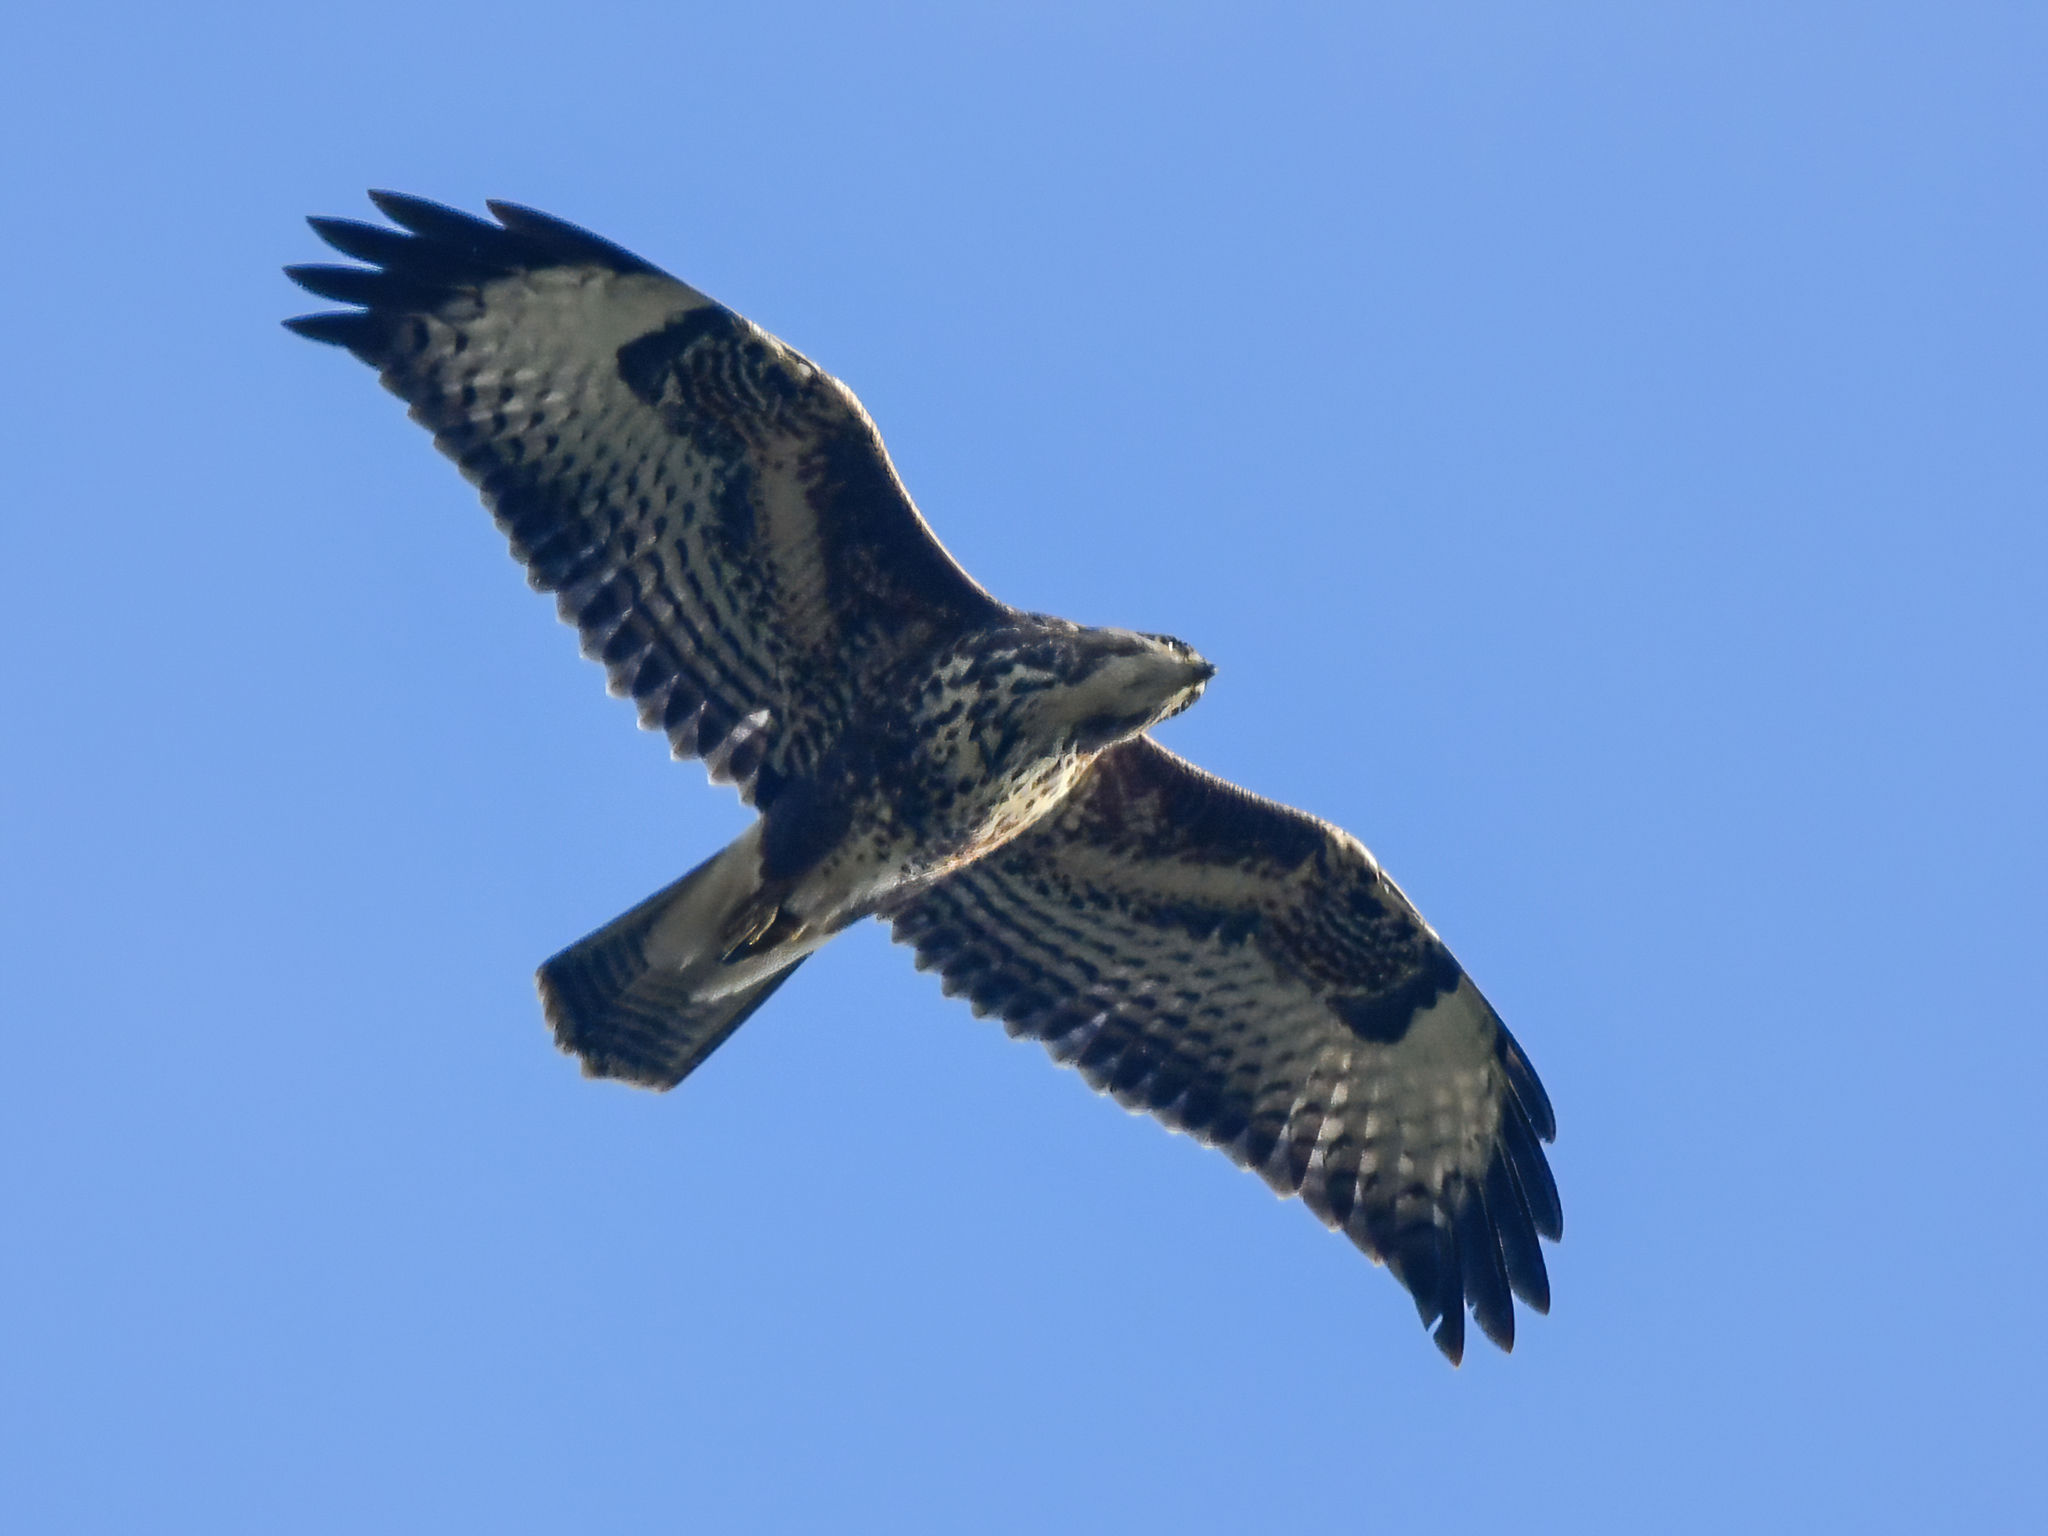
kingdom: Animalia
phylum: Chordata
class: Aves
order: Accipitriformes
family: Accipitridae
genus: Buteo
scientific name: Buteo buteo
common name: Common buzzard
